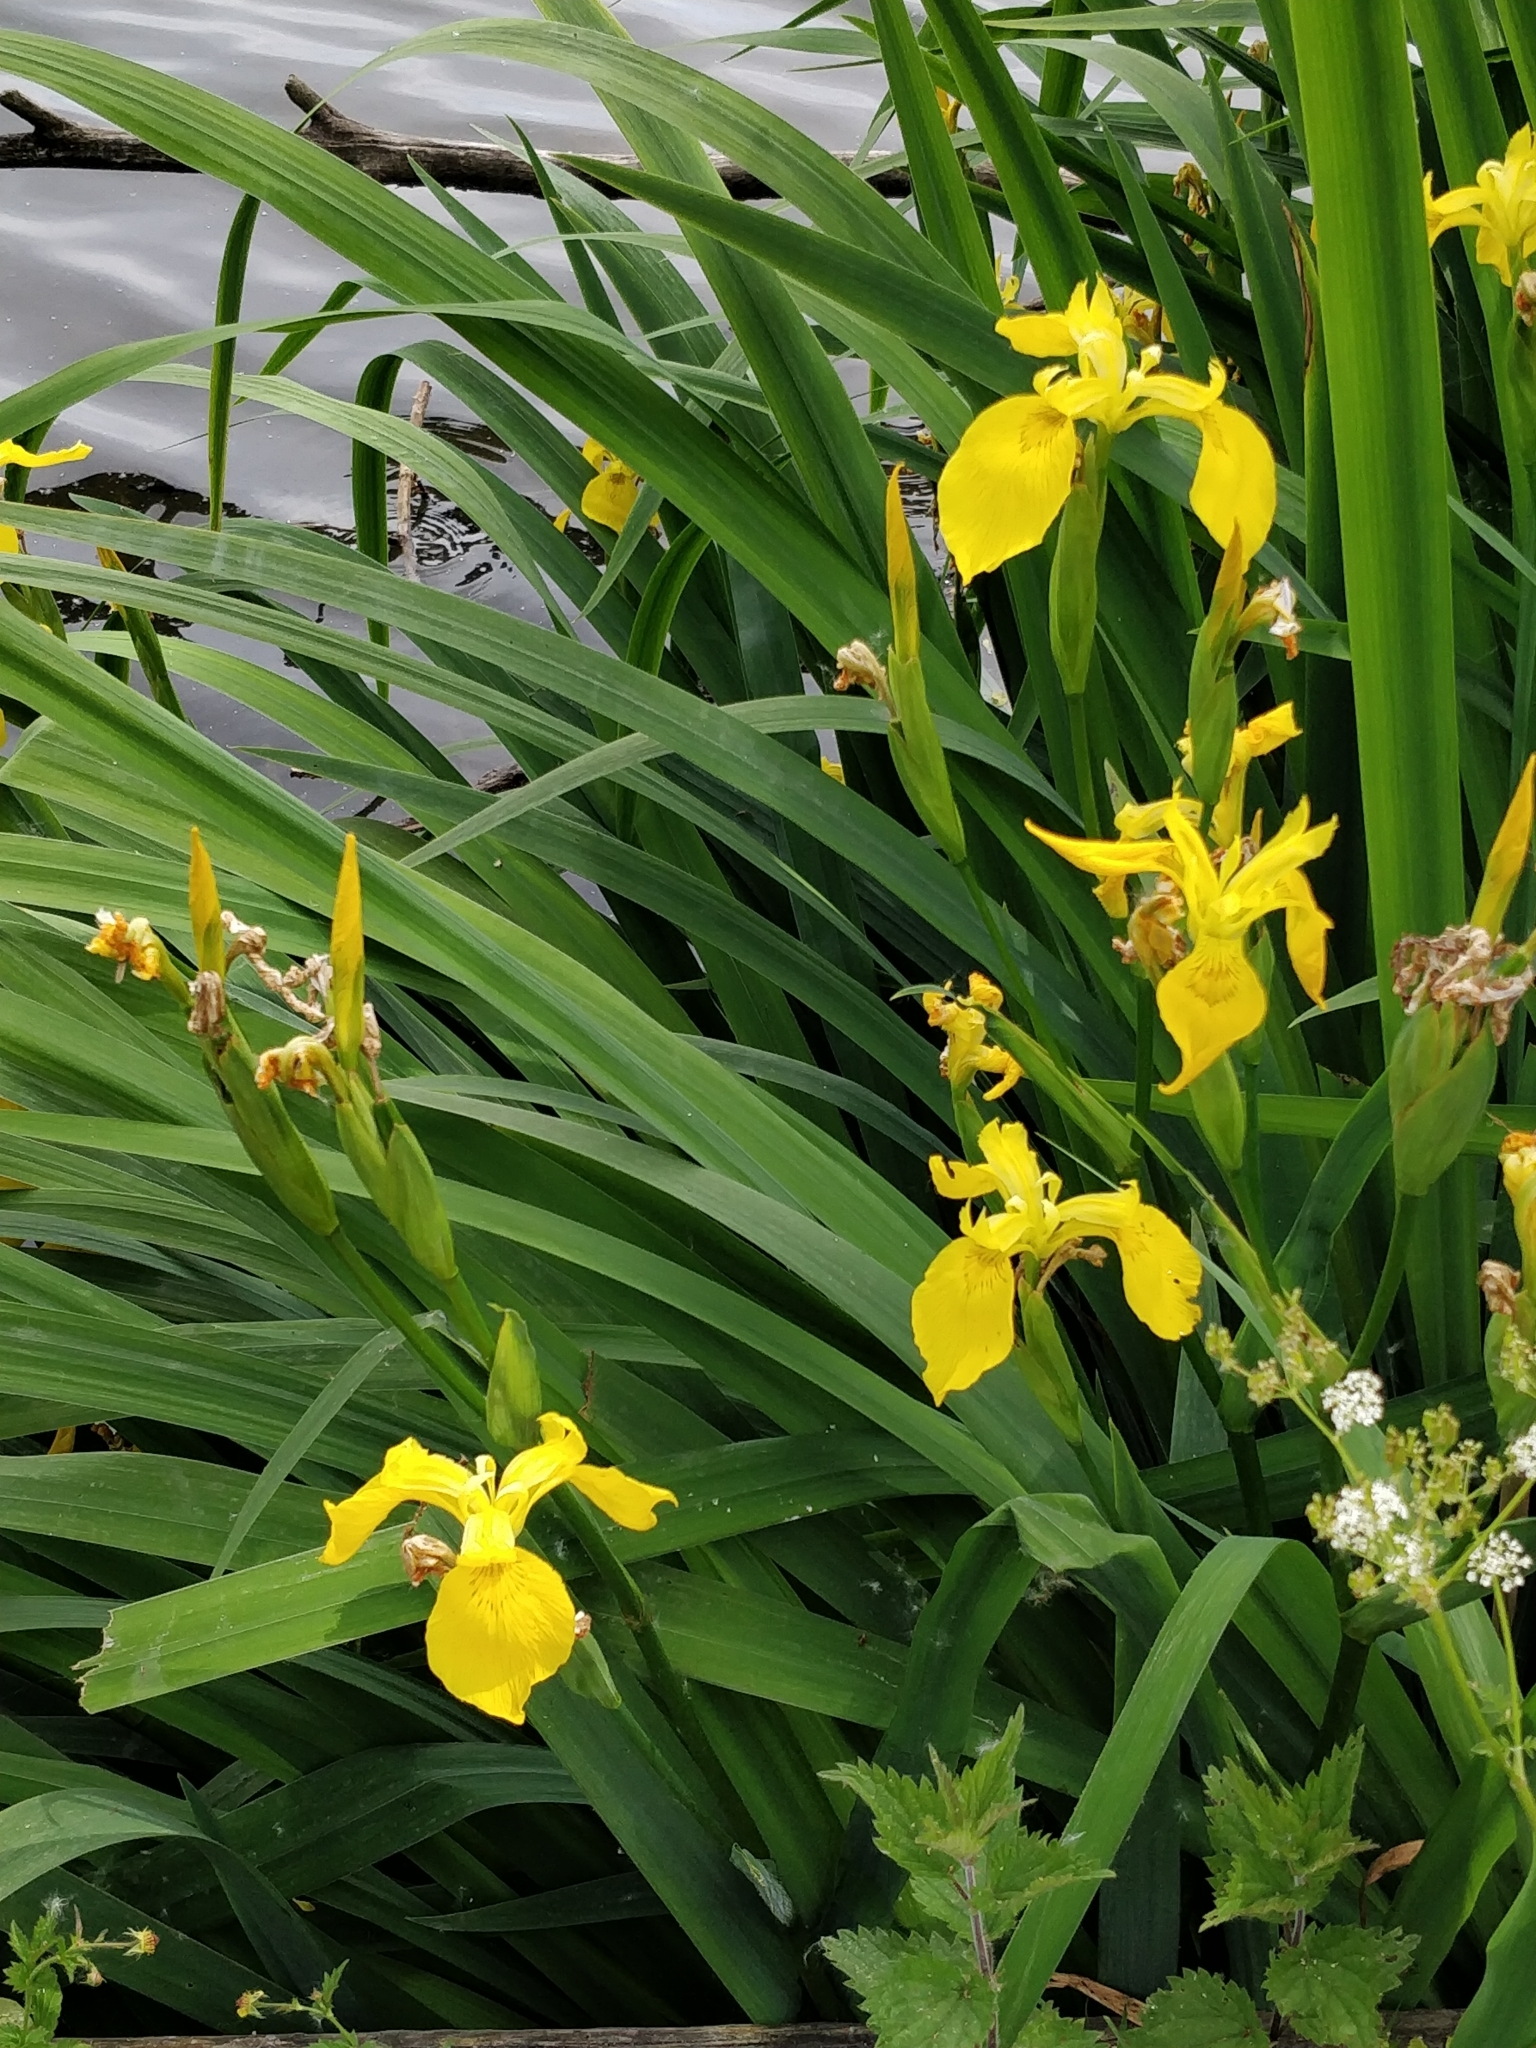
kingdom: Plantae
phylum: Tracheophyta
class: Liliopsida
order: Asparagales
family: Iridaceae
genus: Iris
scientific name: Iris pseudacorus
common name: Yellow flag
